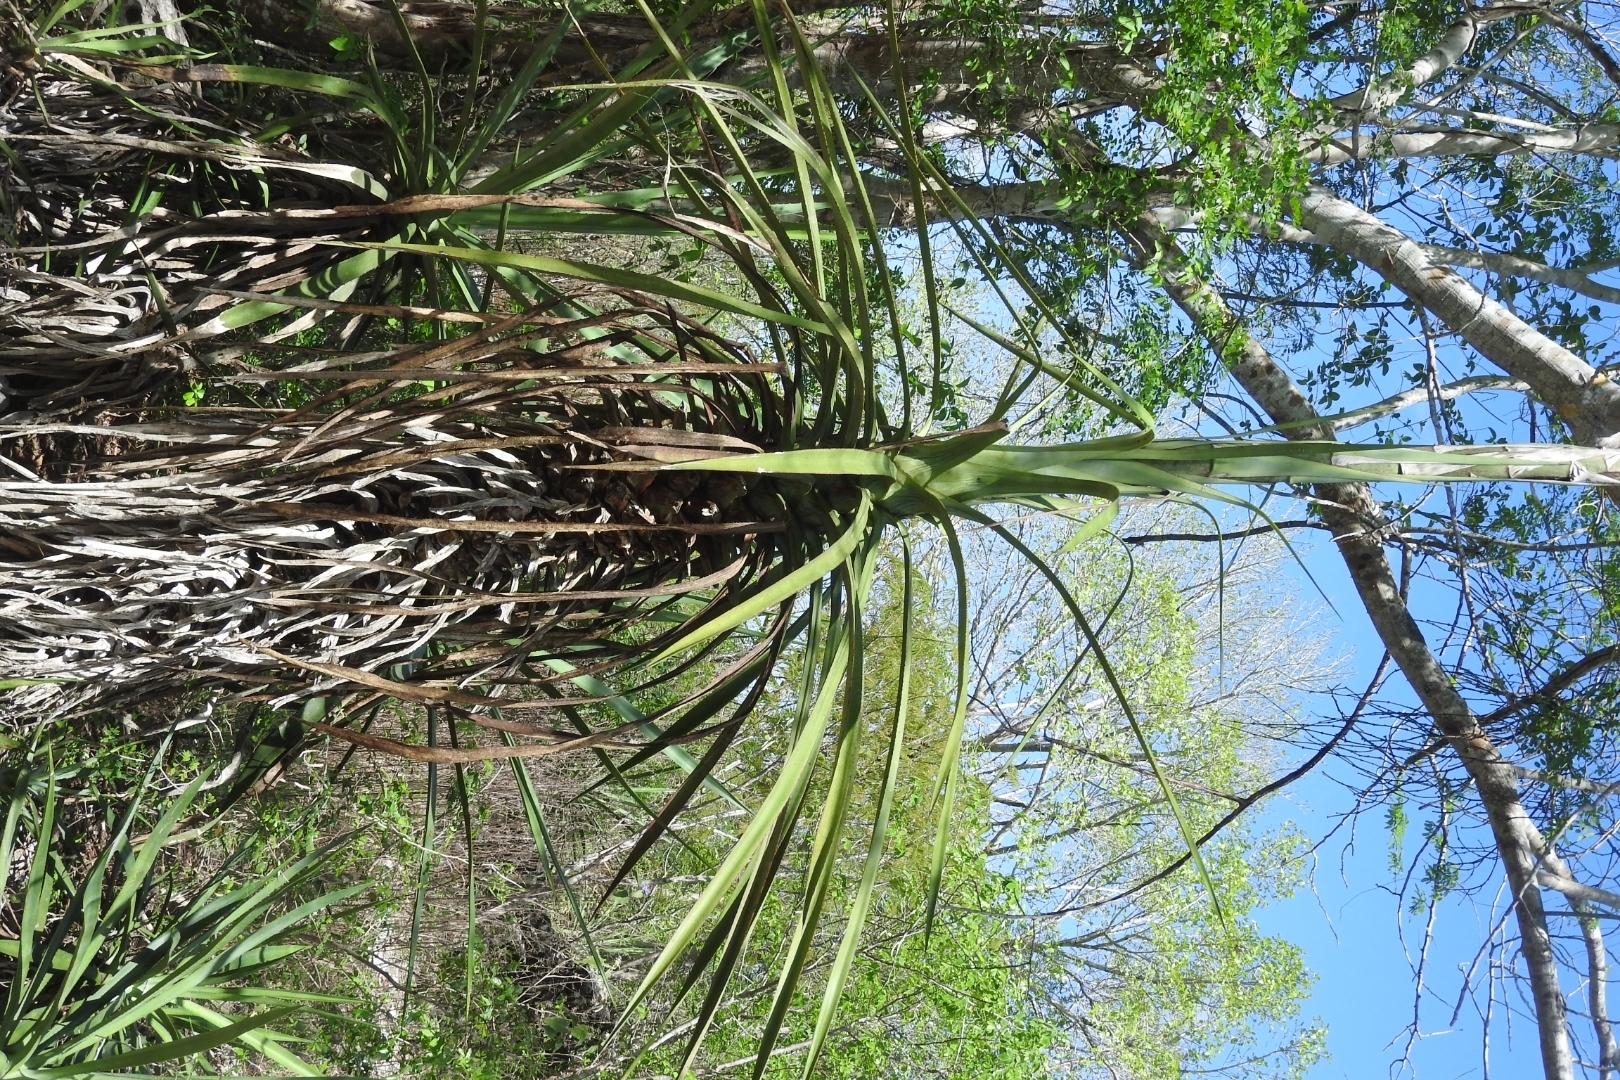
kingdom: Plantae
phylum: Tracheophyta
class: Liliopsida
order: Asparagales
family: Asparagaceae
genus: Agave
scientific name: Agave angustifolia
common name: Mescal agave
